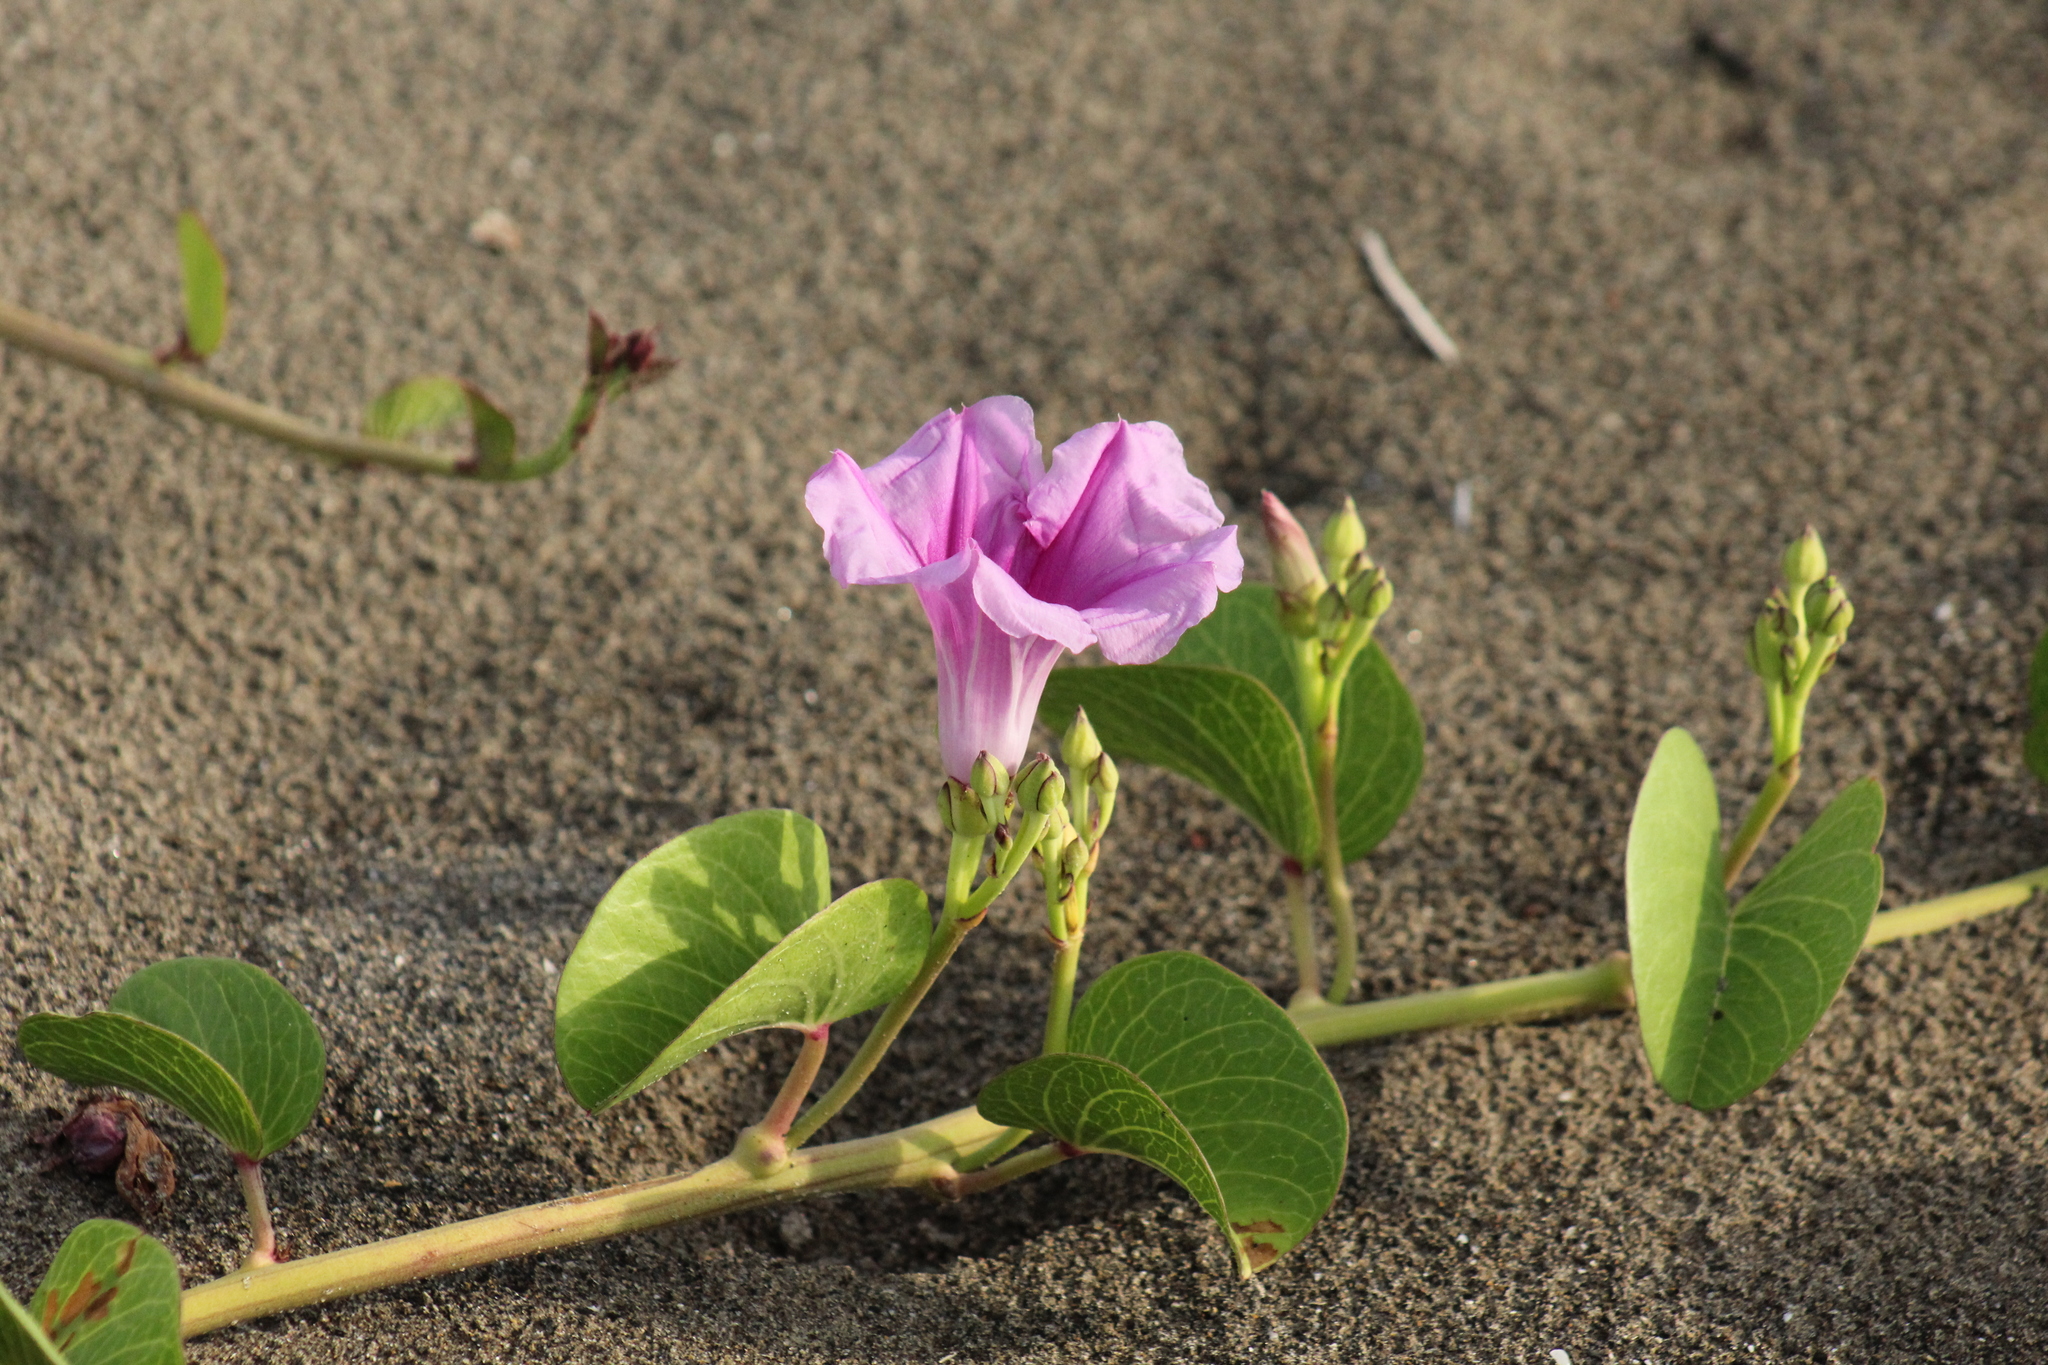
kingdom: Plantae
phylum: Tracheophyta
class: Magnoliopsida
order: Solanales
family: Convolvulaceae
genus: Ipomoea
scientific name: Ipomoea pes-caprae
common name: Beach morning glory
